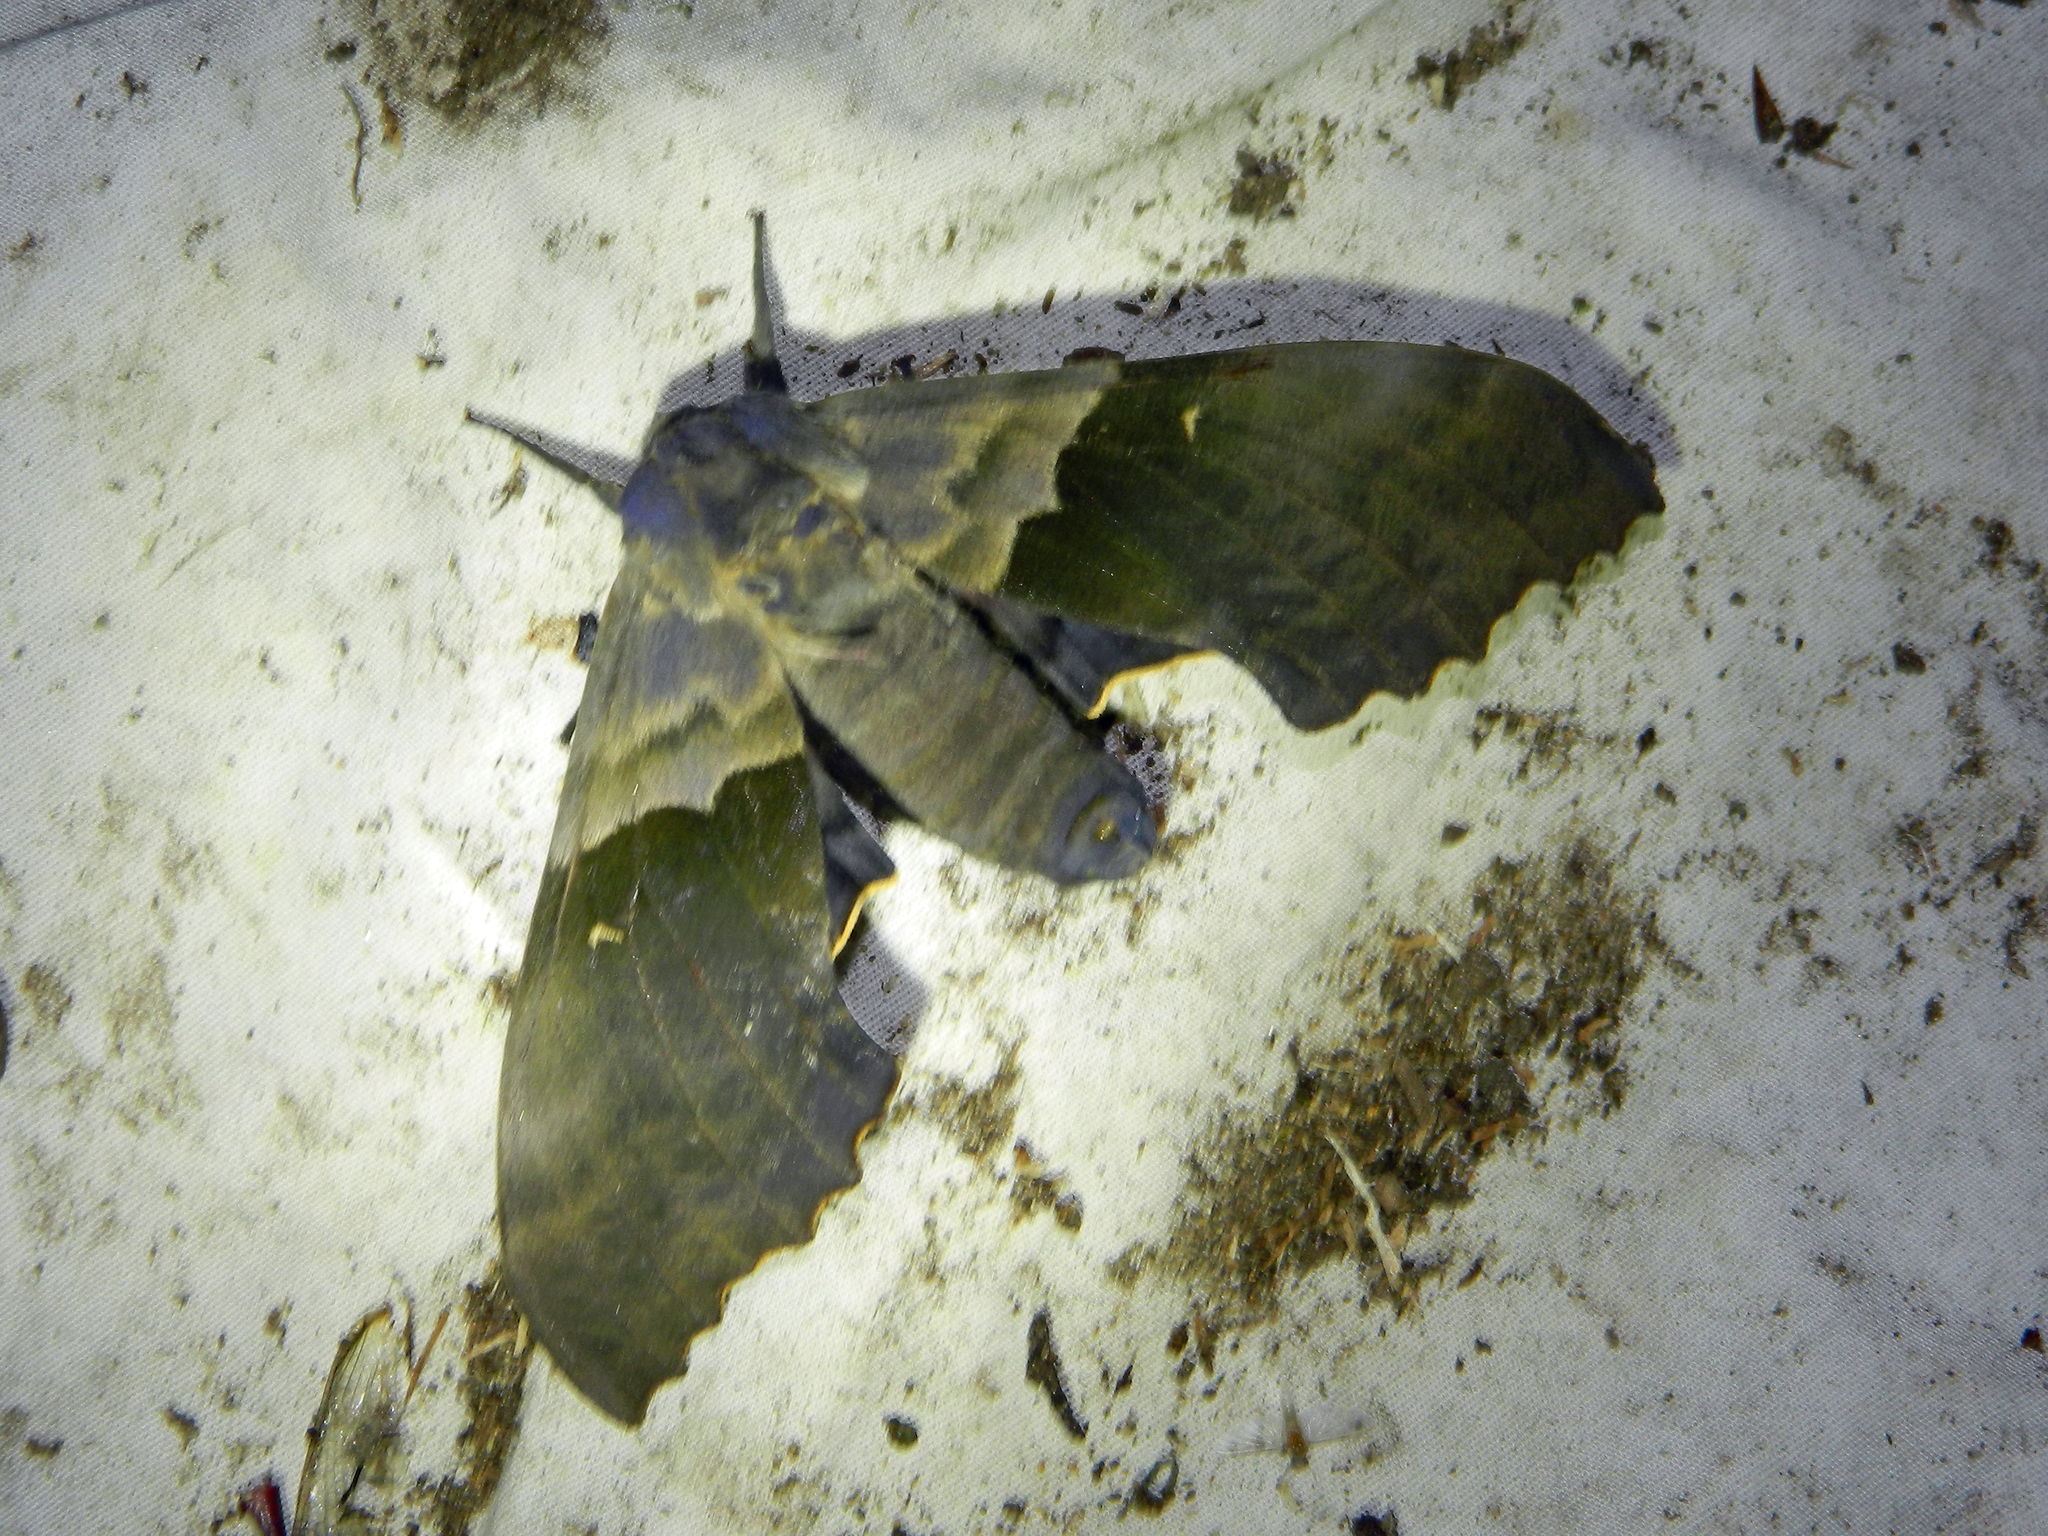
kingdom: Animalia
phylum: Arthropoda
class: Insecta
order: Lepidoptera
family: Sphingidae
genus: Pachysphinx
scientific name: Pachysphinx modesta
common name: Big poplar sphinx
